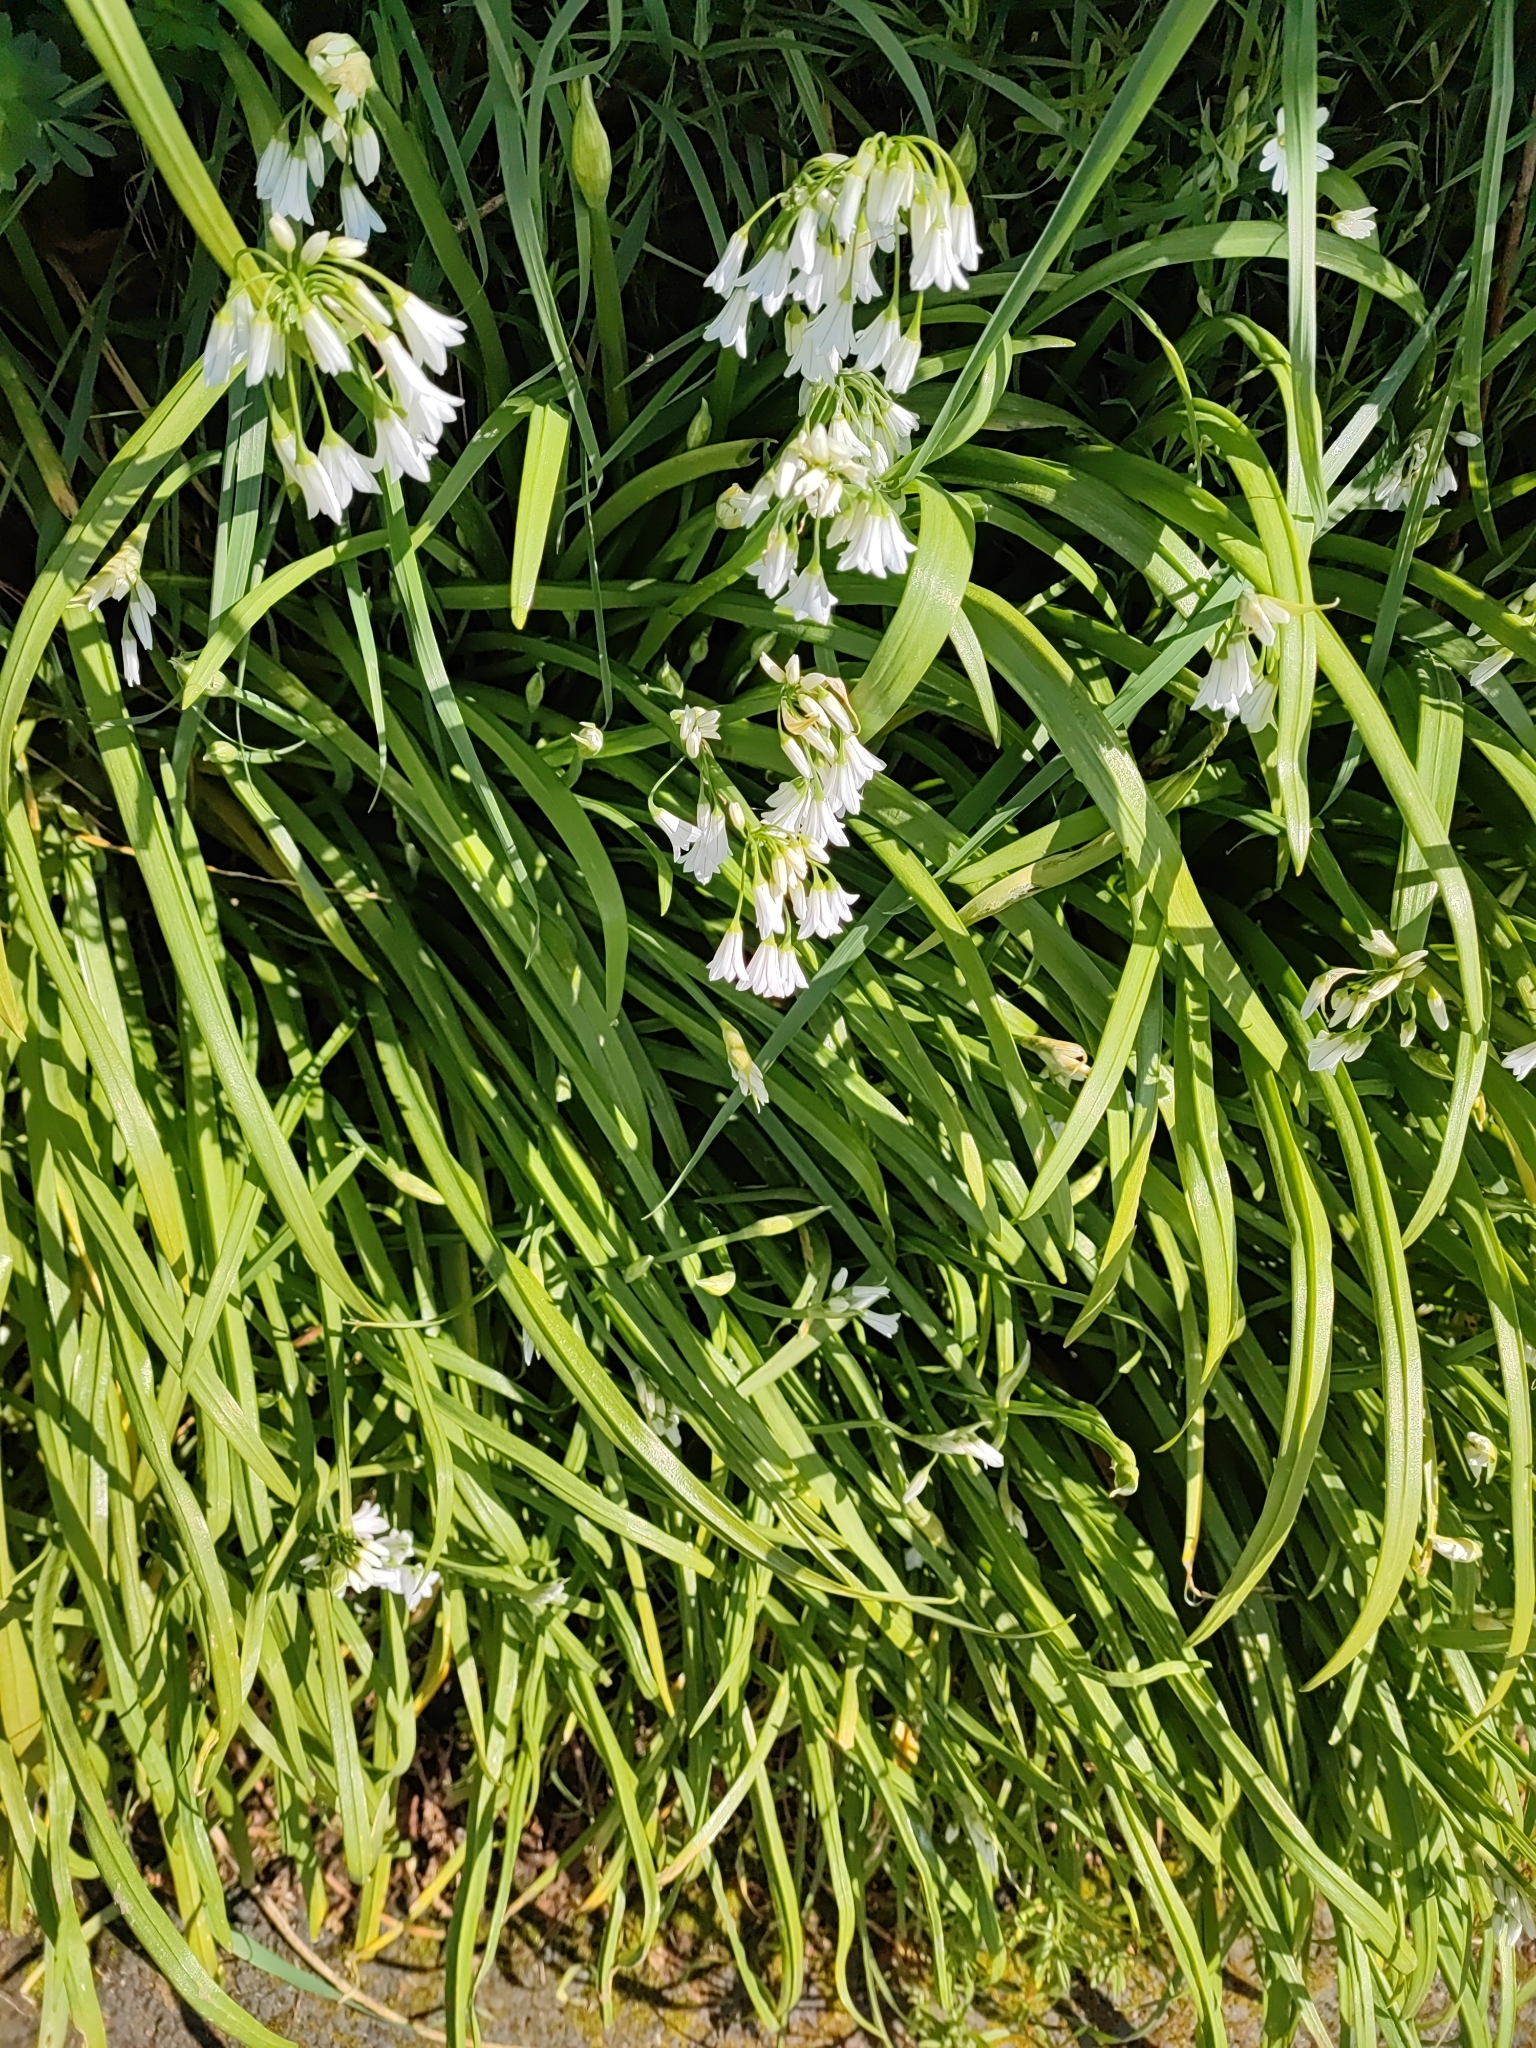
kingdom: Plantae
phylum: Tracheophyta
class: Liliopsida
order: Asparagales
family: Amaryllidaceae
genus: Allium
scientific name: Allium triquetrum
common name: Three-cornered garlic
